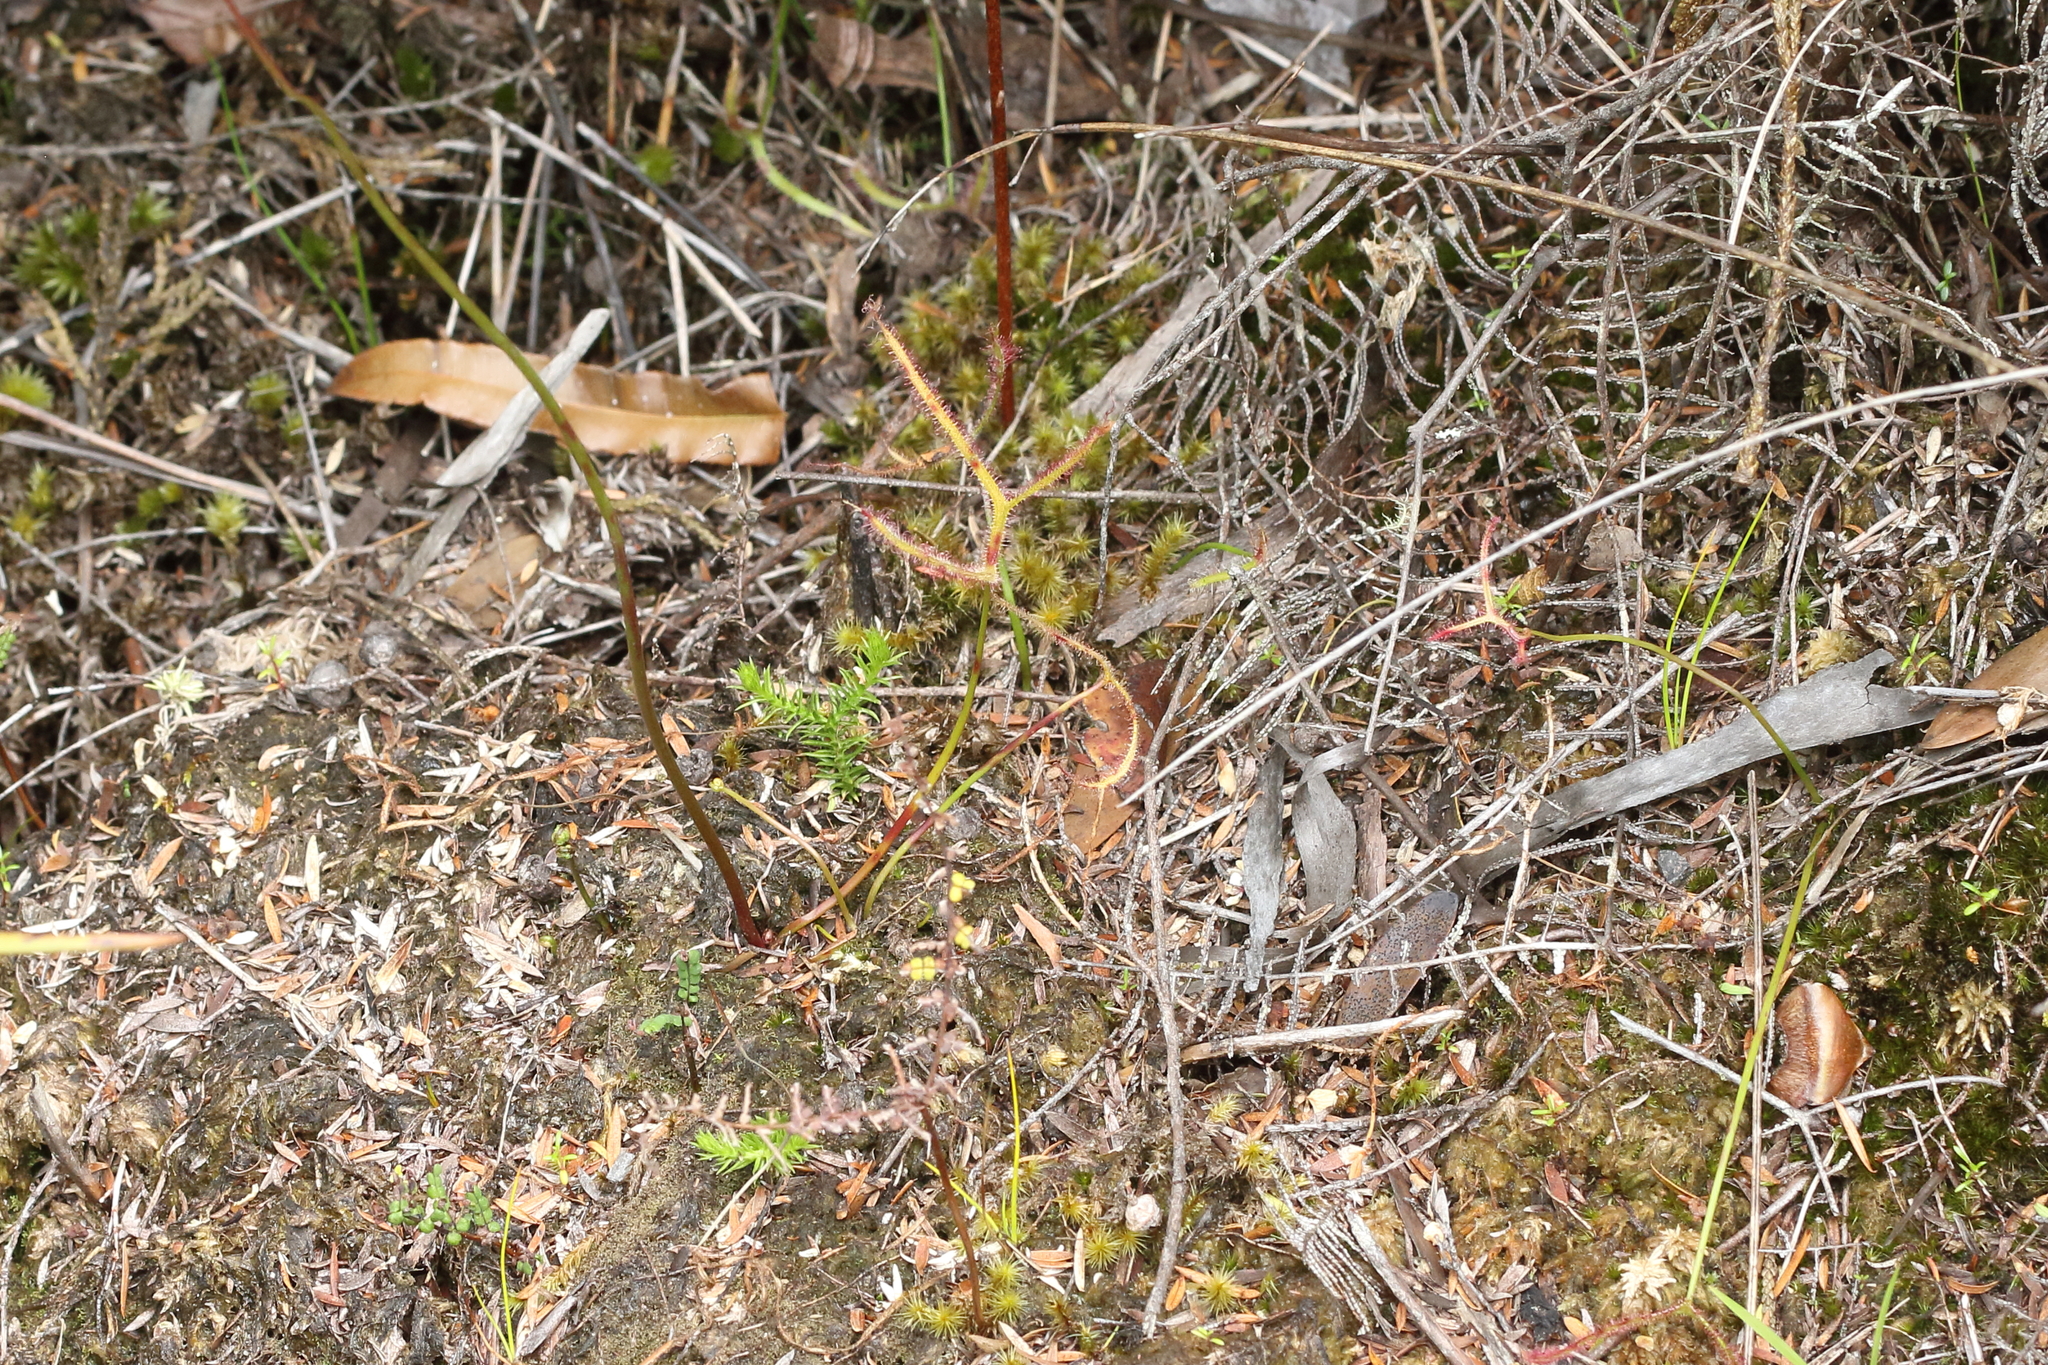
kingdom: Plantae
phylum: Tracheophyta
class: Magnoliopsida
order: Caryophyllales
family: Droseraceae
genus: Drosera
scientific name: Drosera binata
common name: Forked sundew
